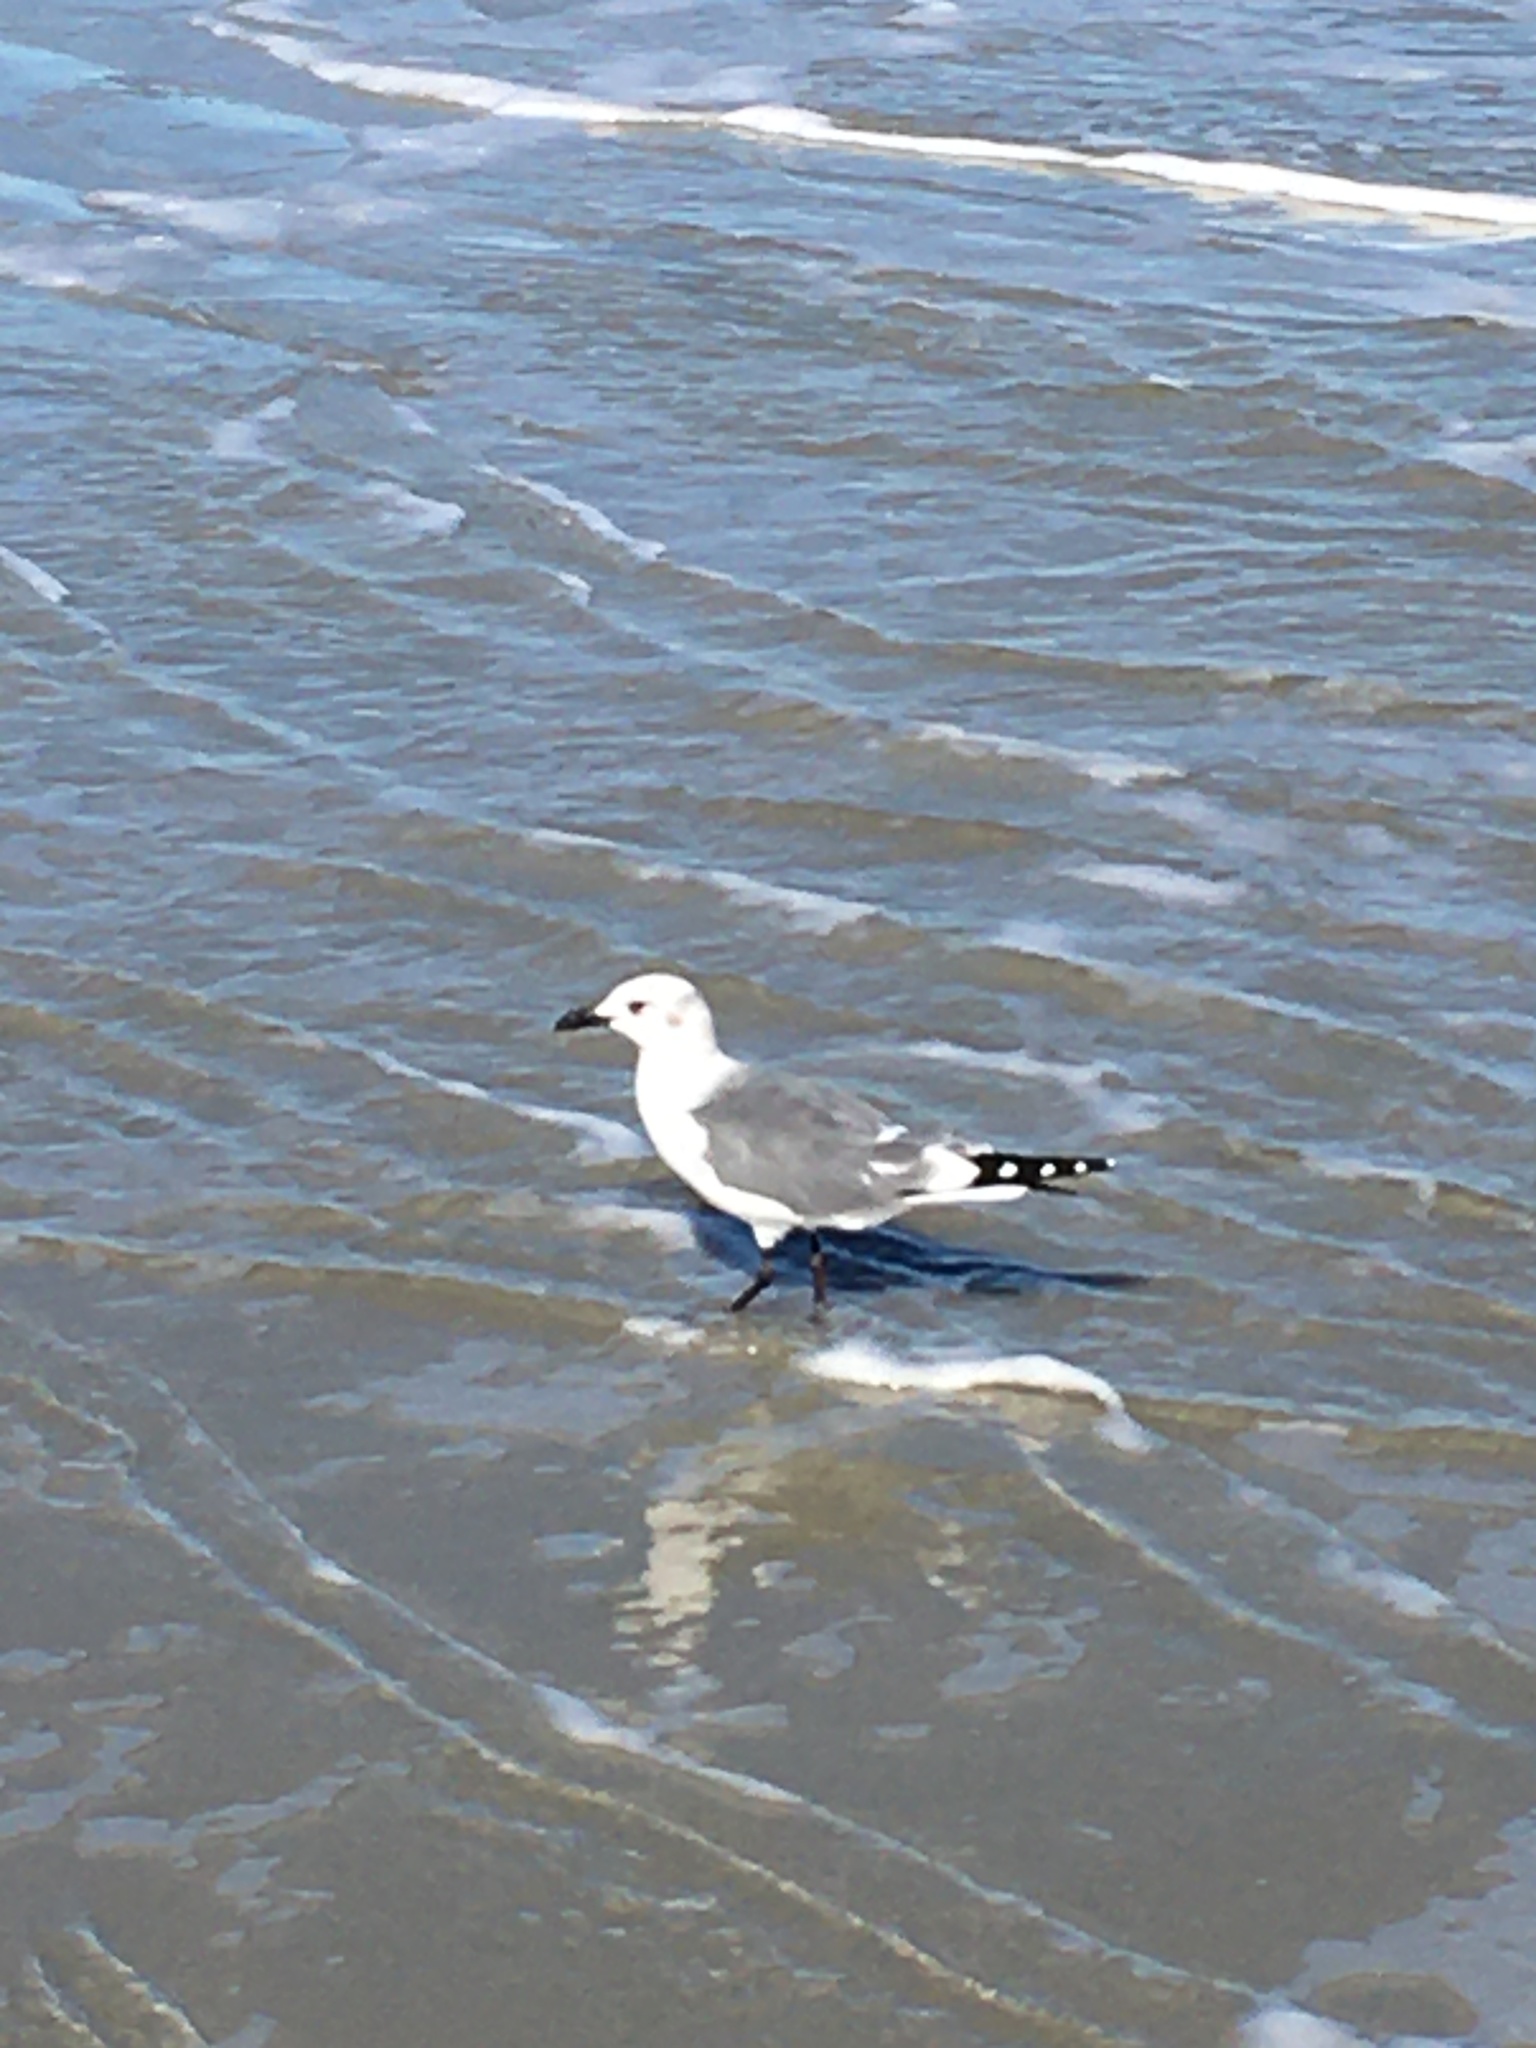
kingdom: Animalia
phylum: Chordata
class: Aves
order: Charadriiformes
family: Laridae
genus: Leucophaeus
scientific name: Leucophaeus atricilla
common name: Laughing gull
